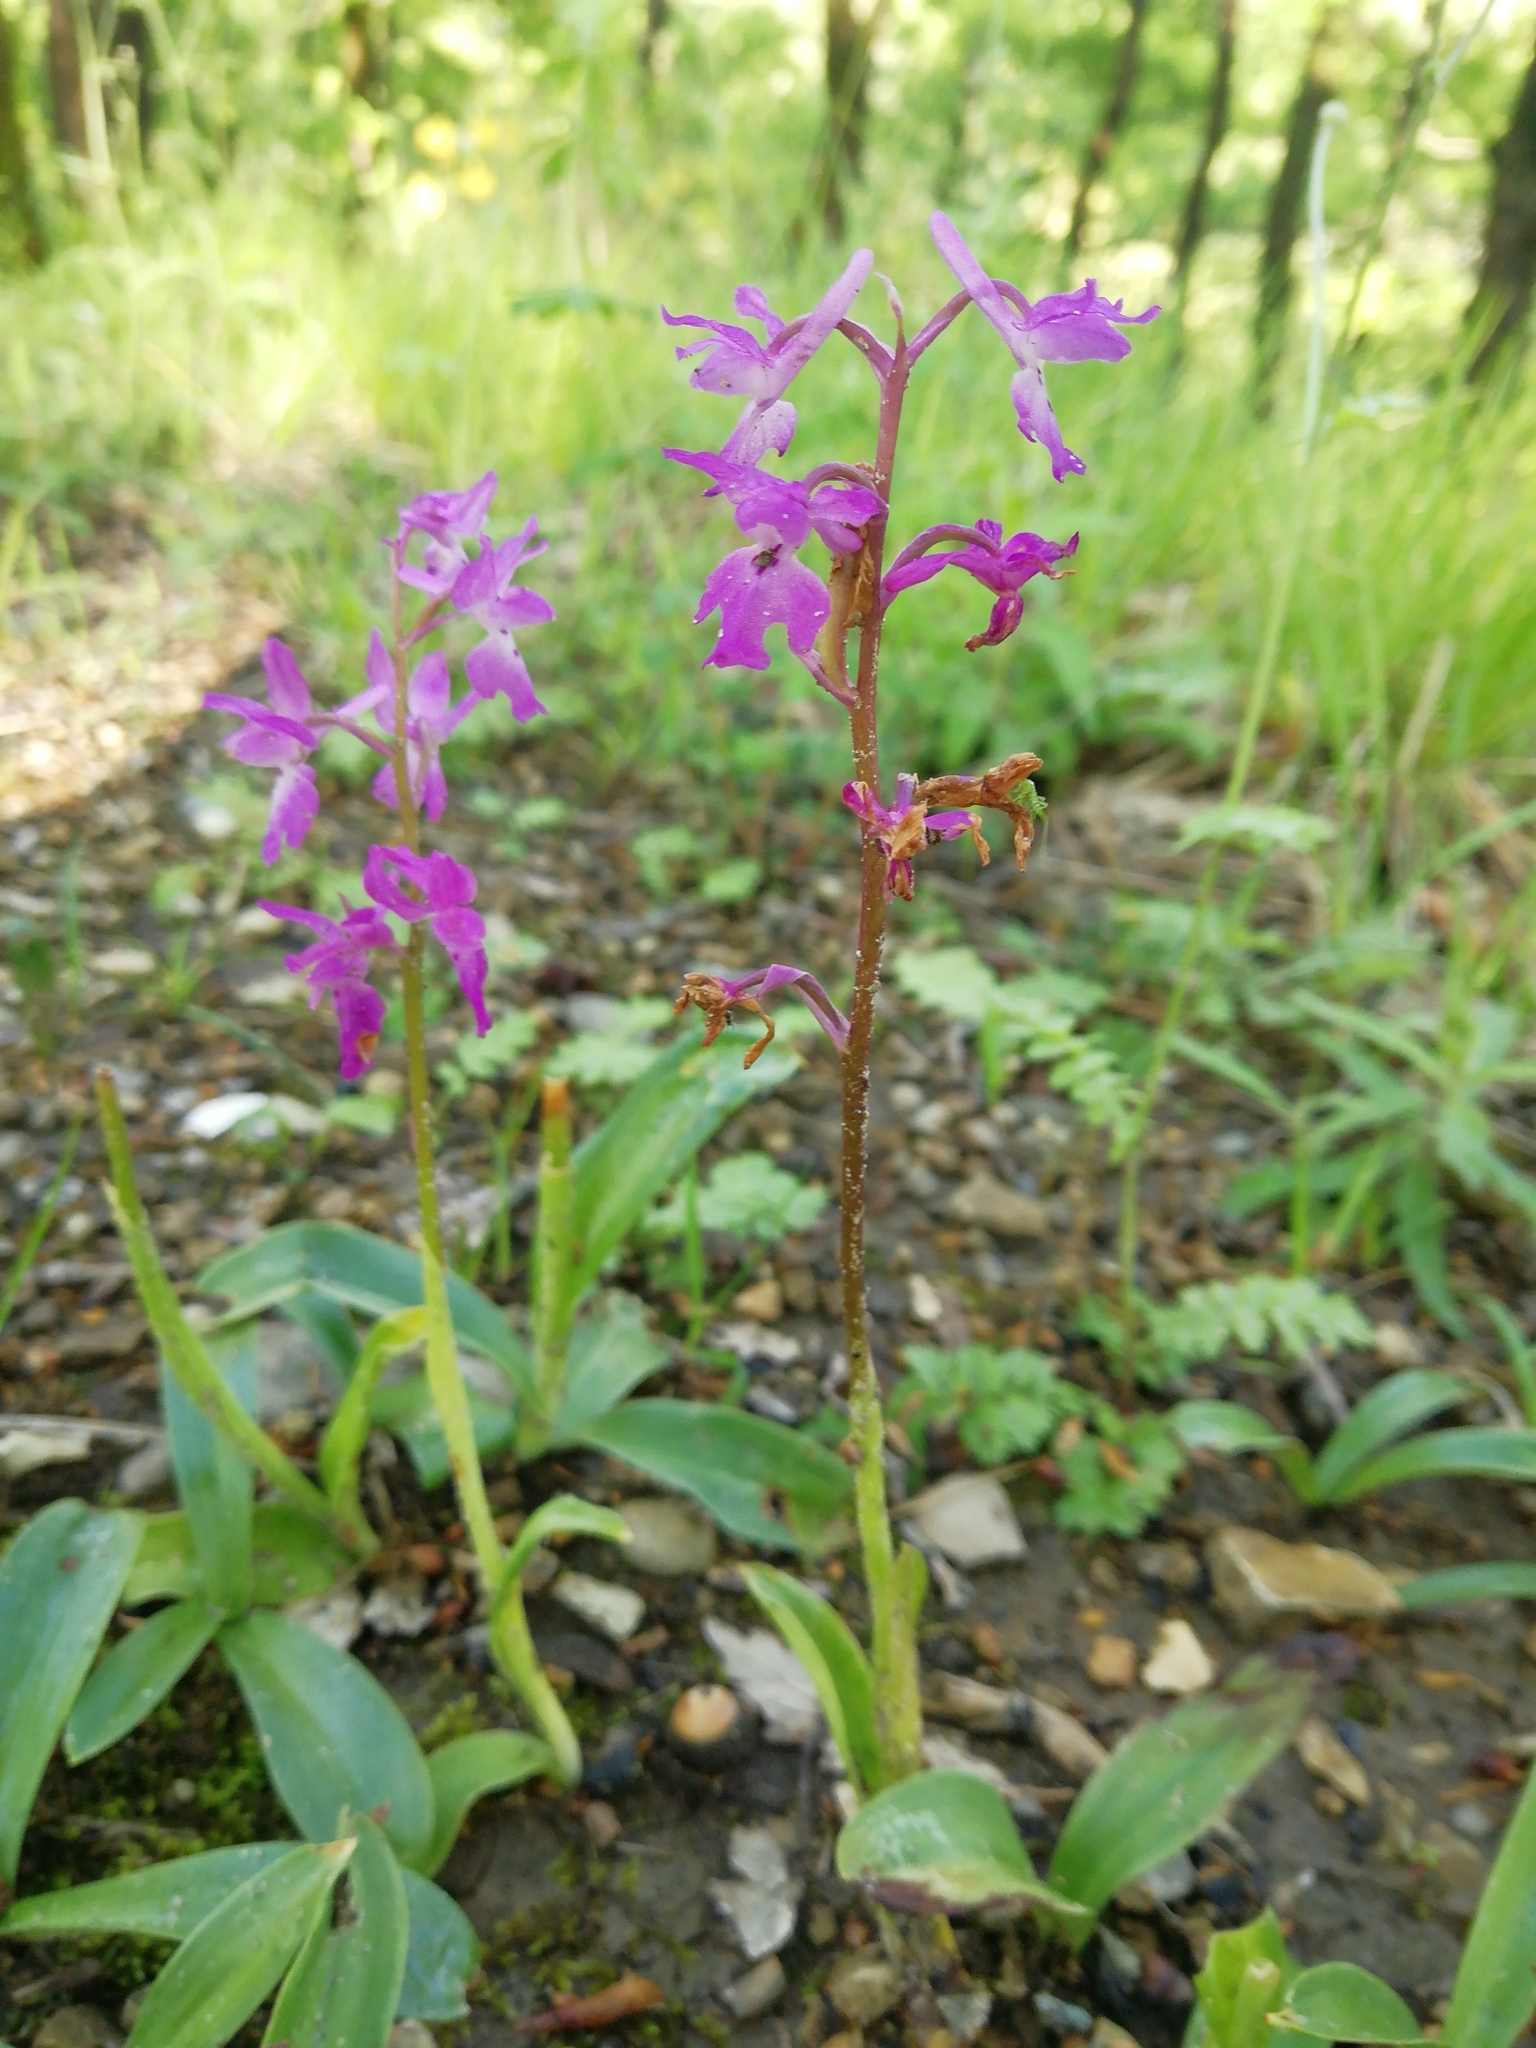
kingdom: Plantae
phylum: Tracheophyta
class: Liliopsida
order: Asparagales
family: Orchidaceae
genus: Orchis
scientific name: Orchis mascula
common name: Early-purple orchid
